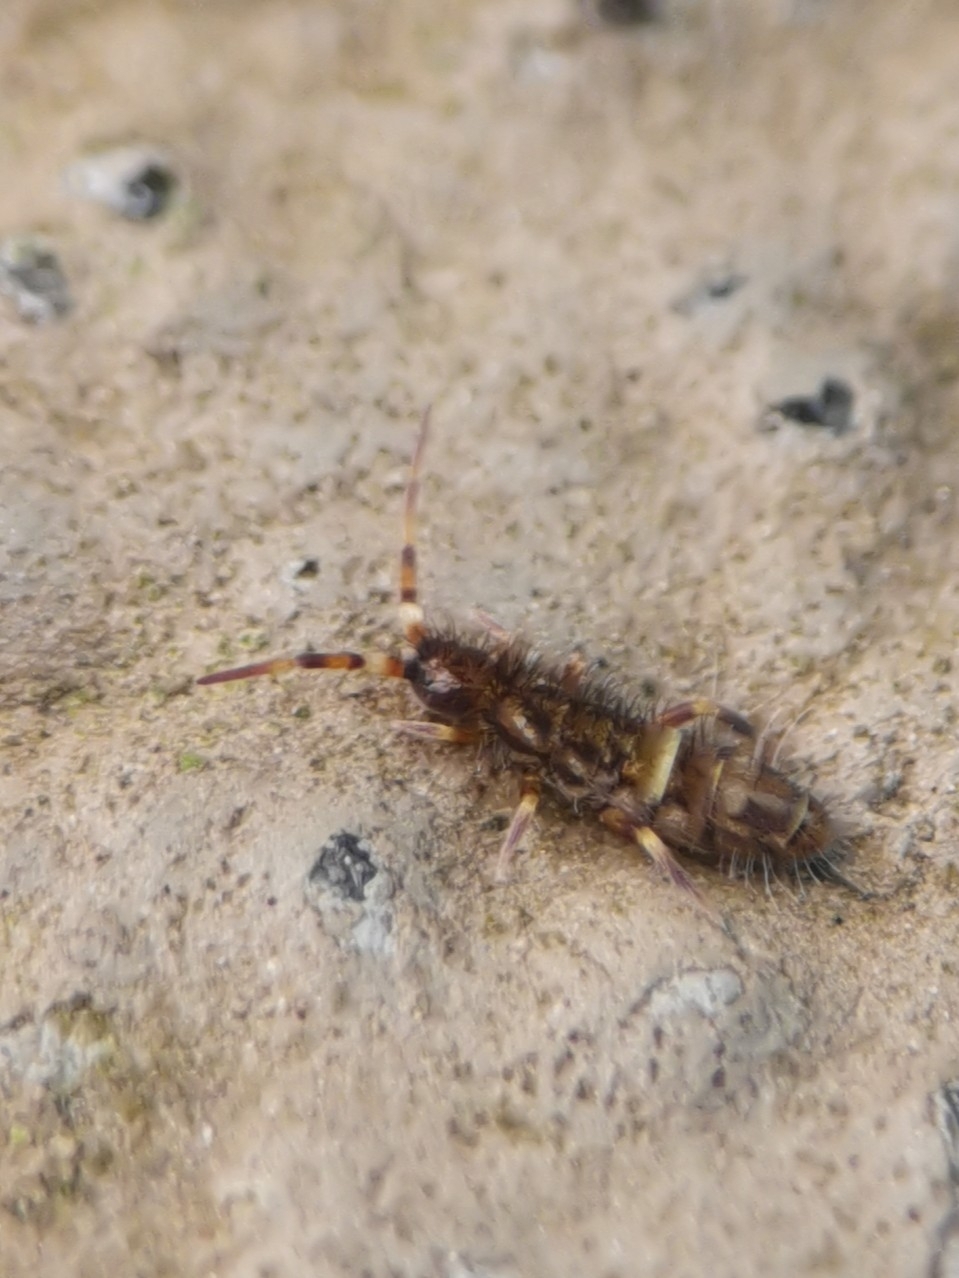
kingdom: Animalia
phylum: Arthropoda
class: Collembola
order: Entomobryomorpha
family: Orchesellidae
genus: Orchesella
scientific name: Orchesella cincta
